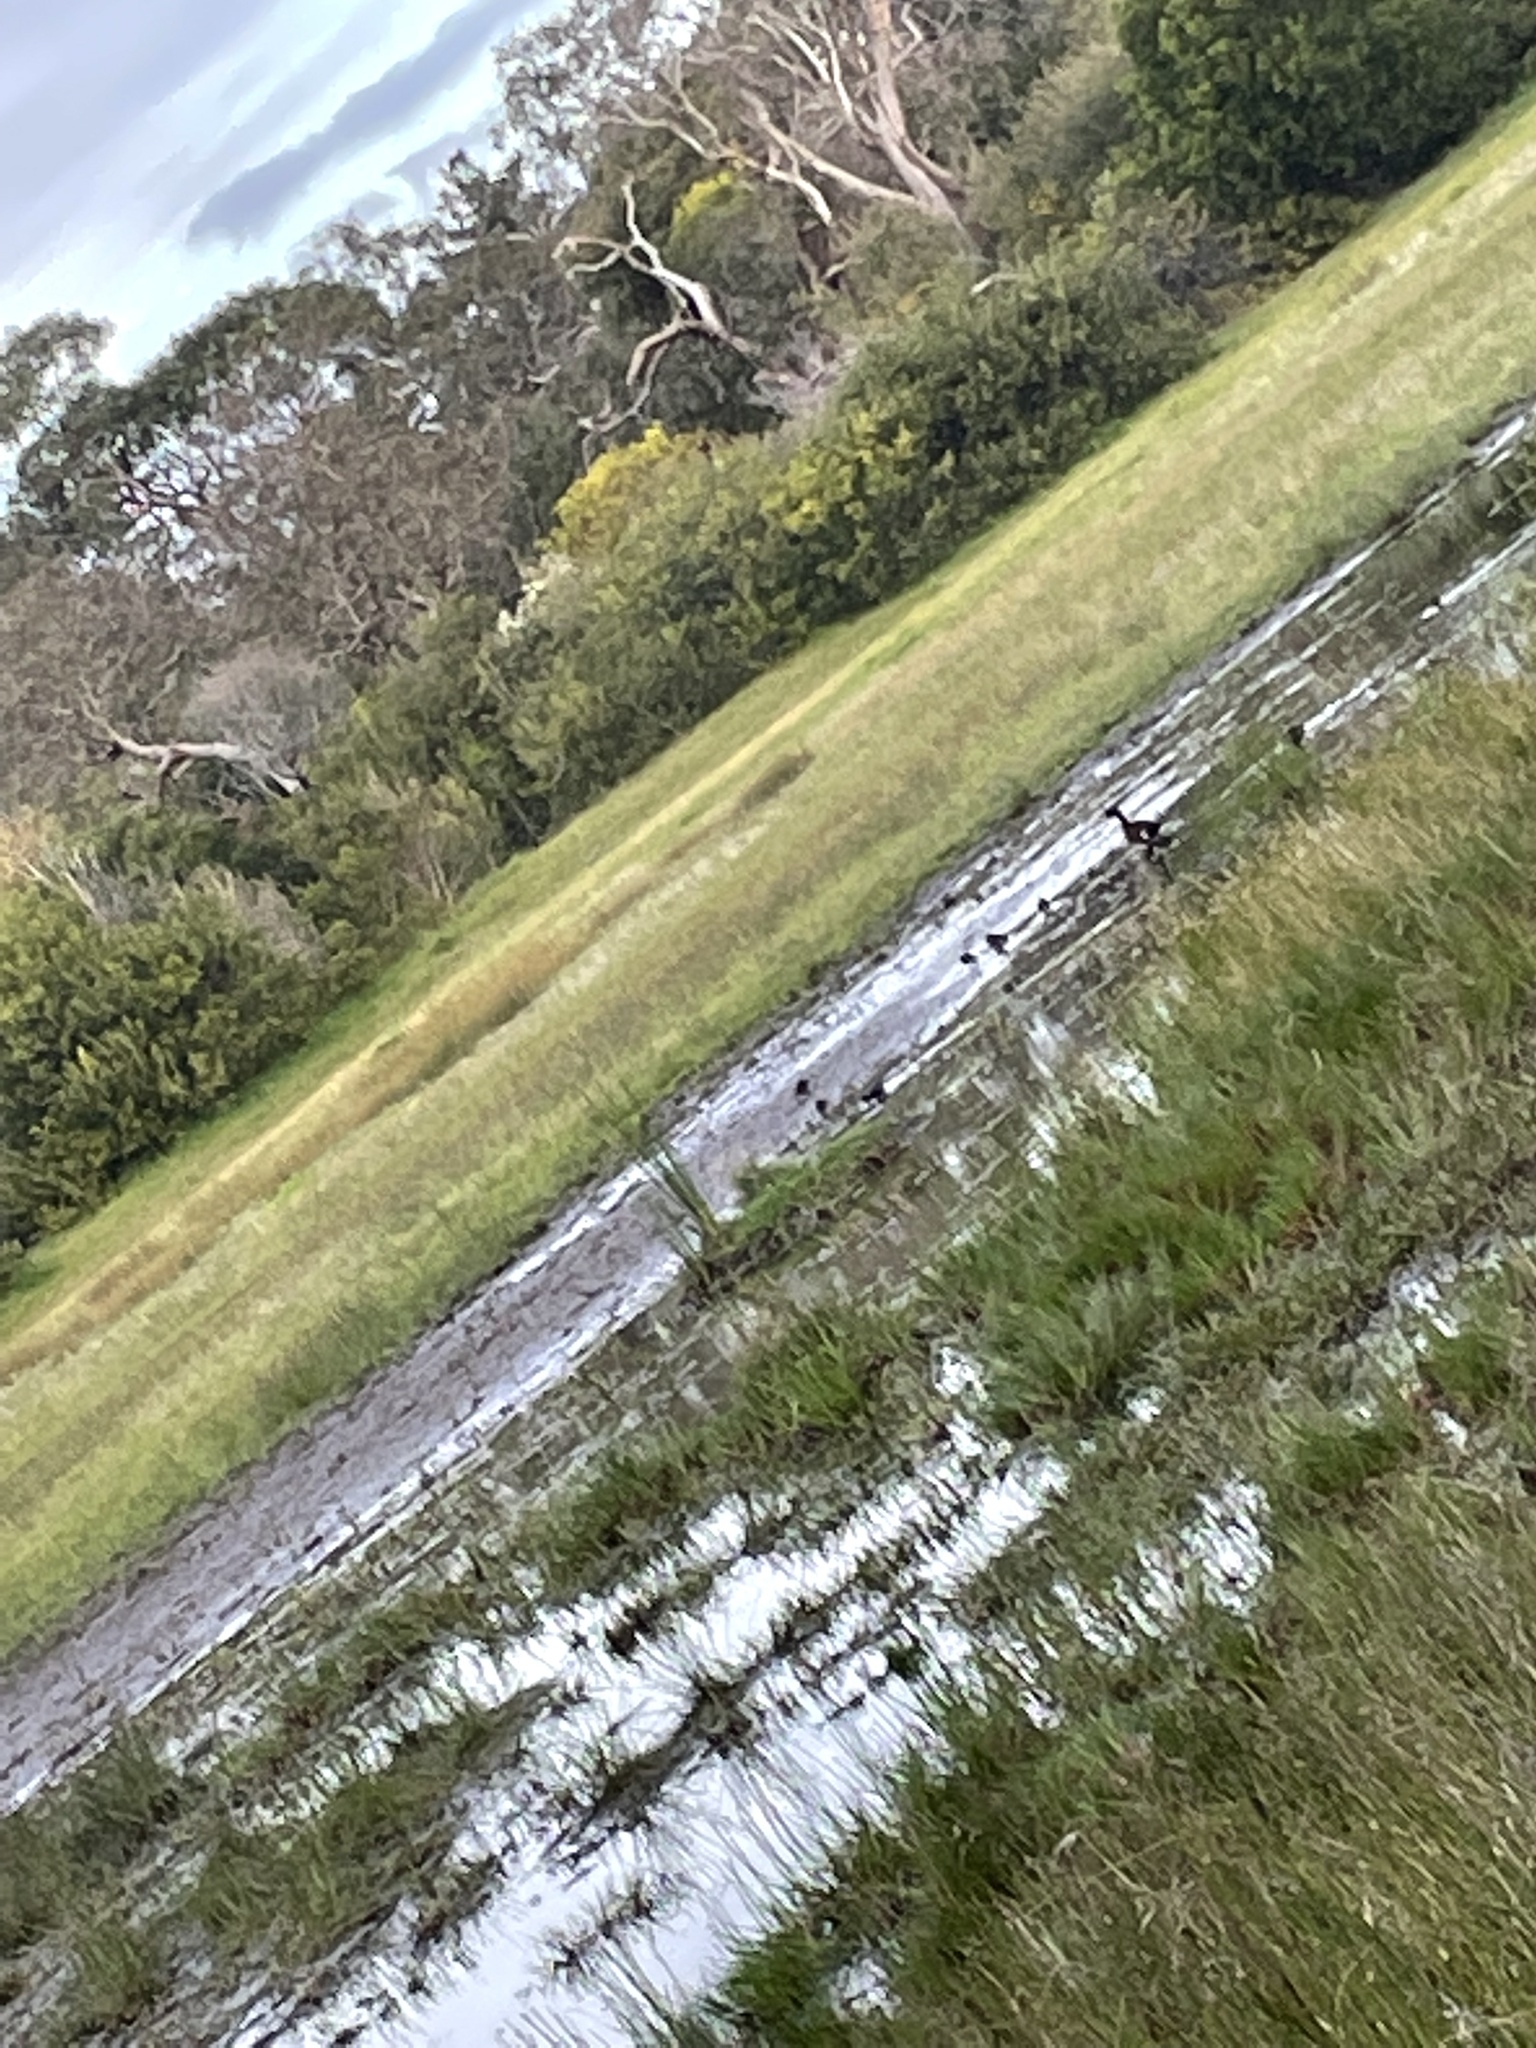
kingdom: Animalia
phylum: Chordata
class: Aves
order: Anseriformes
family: Anatidae
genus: Anas
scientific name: Anas castanea
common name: Chestnut teal
